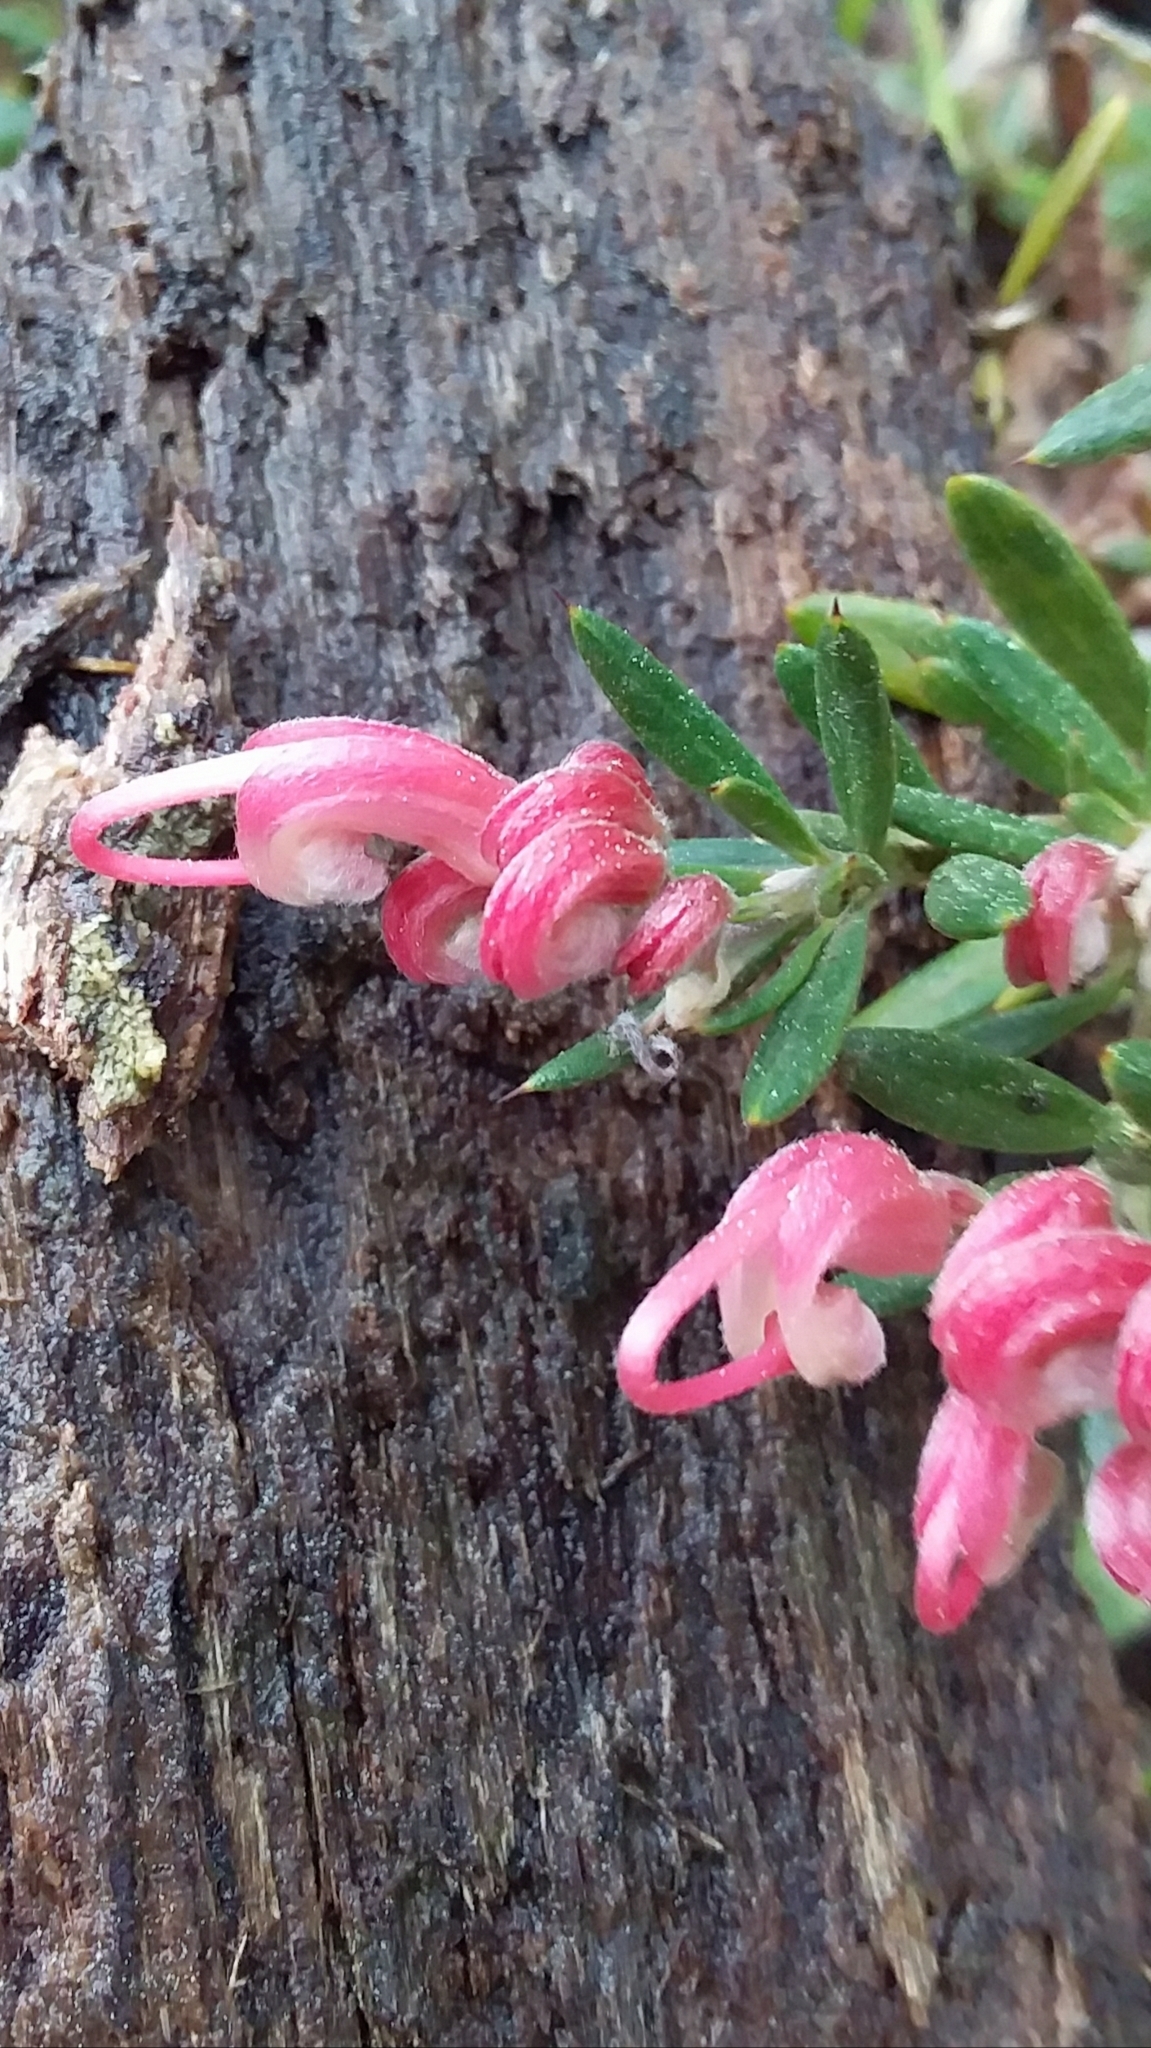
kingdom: Plantae
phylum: Tracheophyta
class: Magnoliopsida
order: Proteales
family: Proteaceae
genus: Grevillea
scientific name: Grevillea lavandulacea
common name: Lavender grevillea
